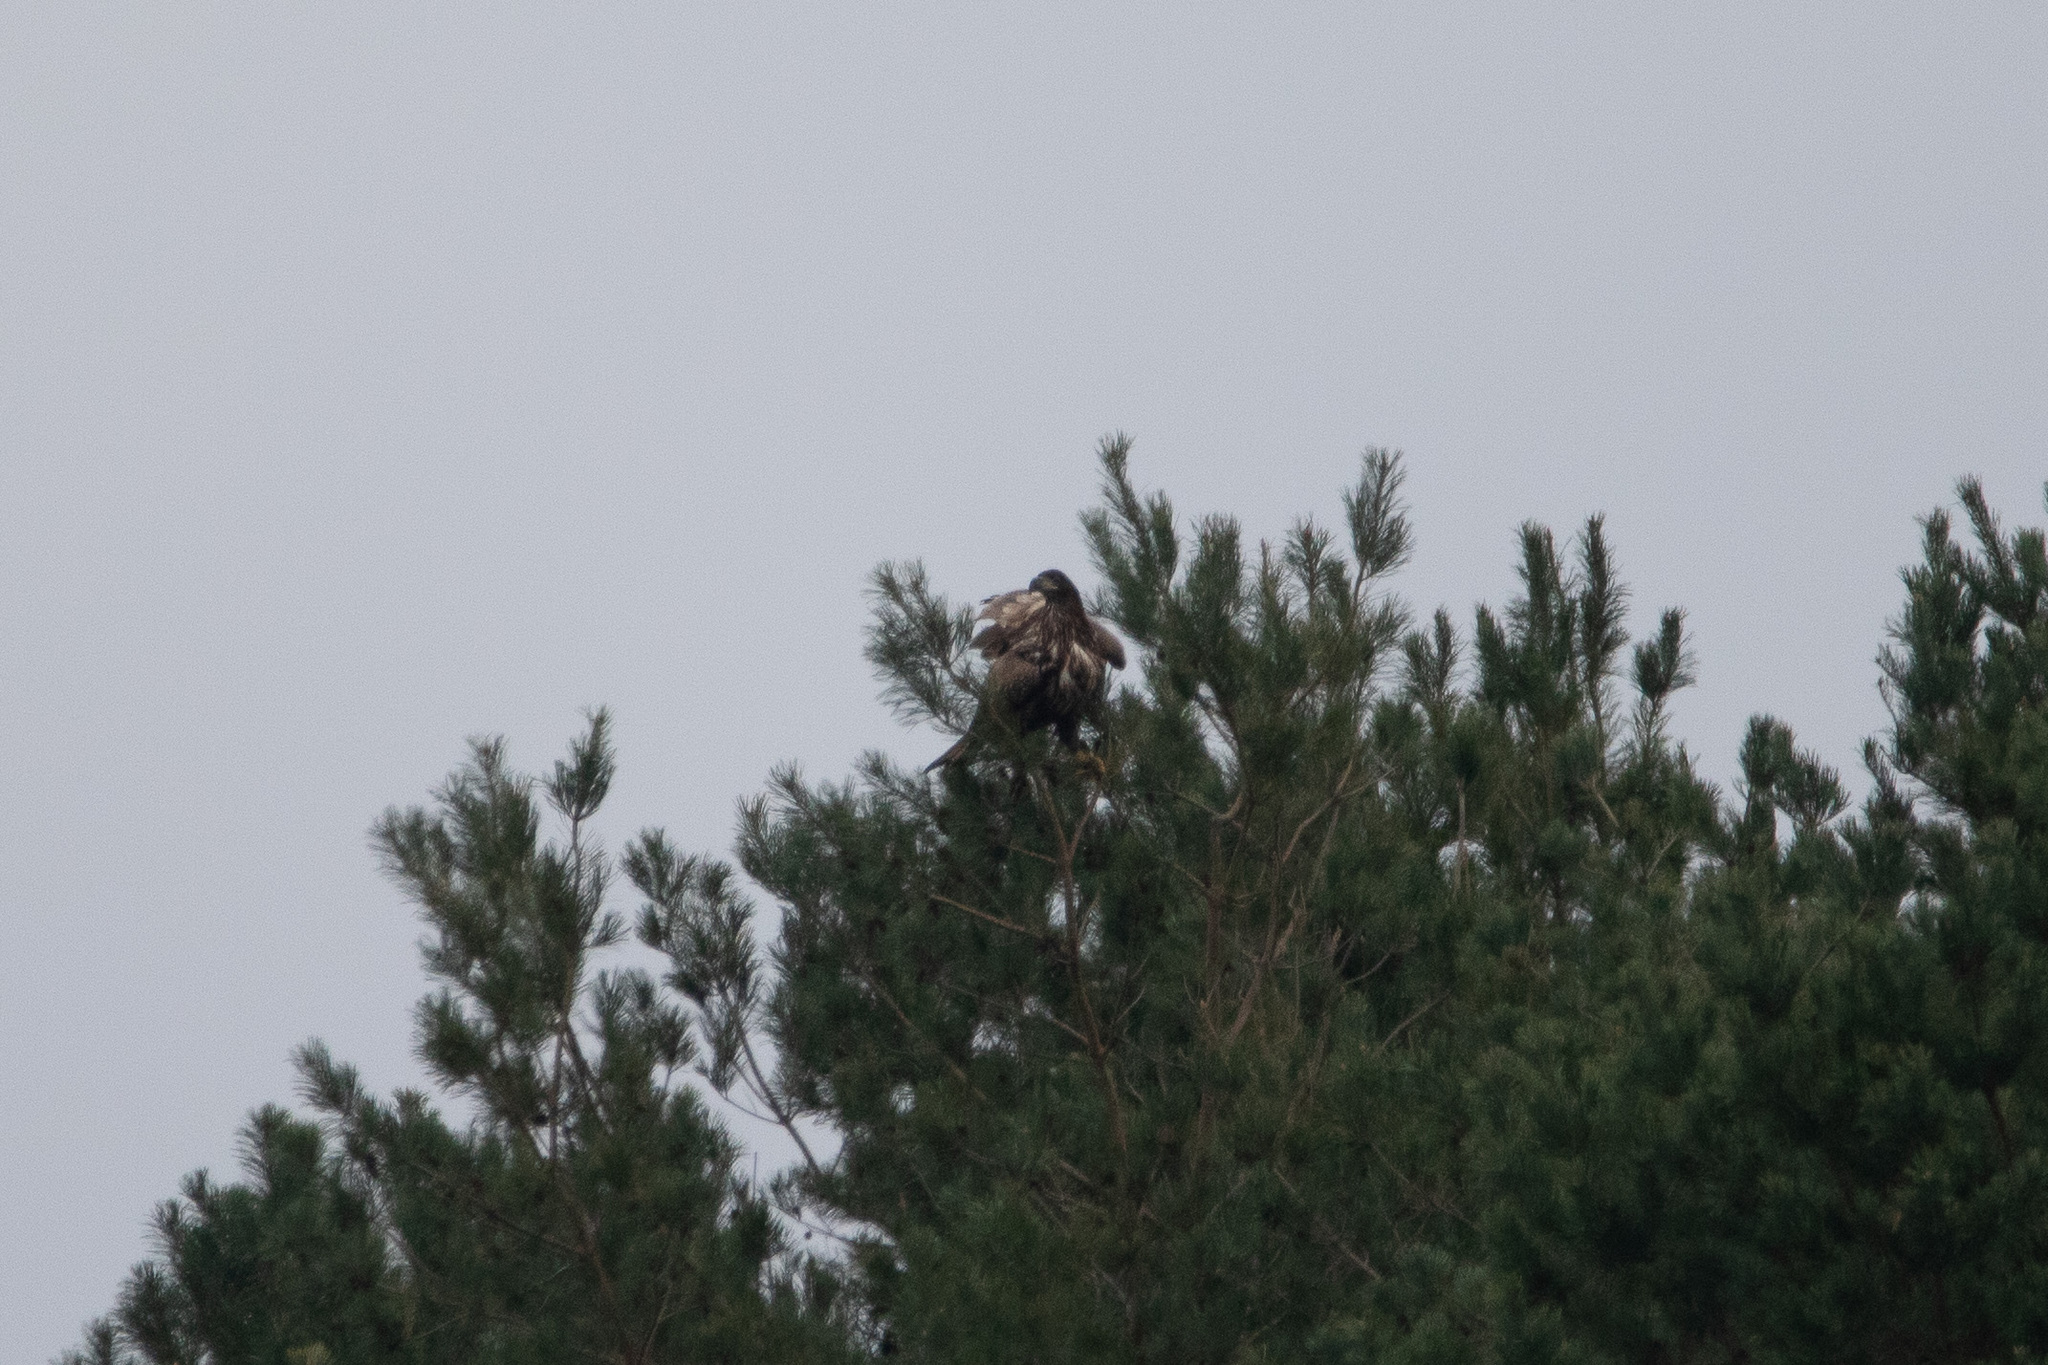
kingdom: Animalia
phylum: Chordata
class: Aves
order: Accipitriformes
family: Accipitridae
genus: Haliaeetus
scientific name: Haliaeetus albicilla
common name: White-tailed eagle
